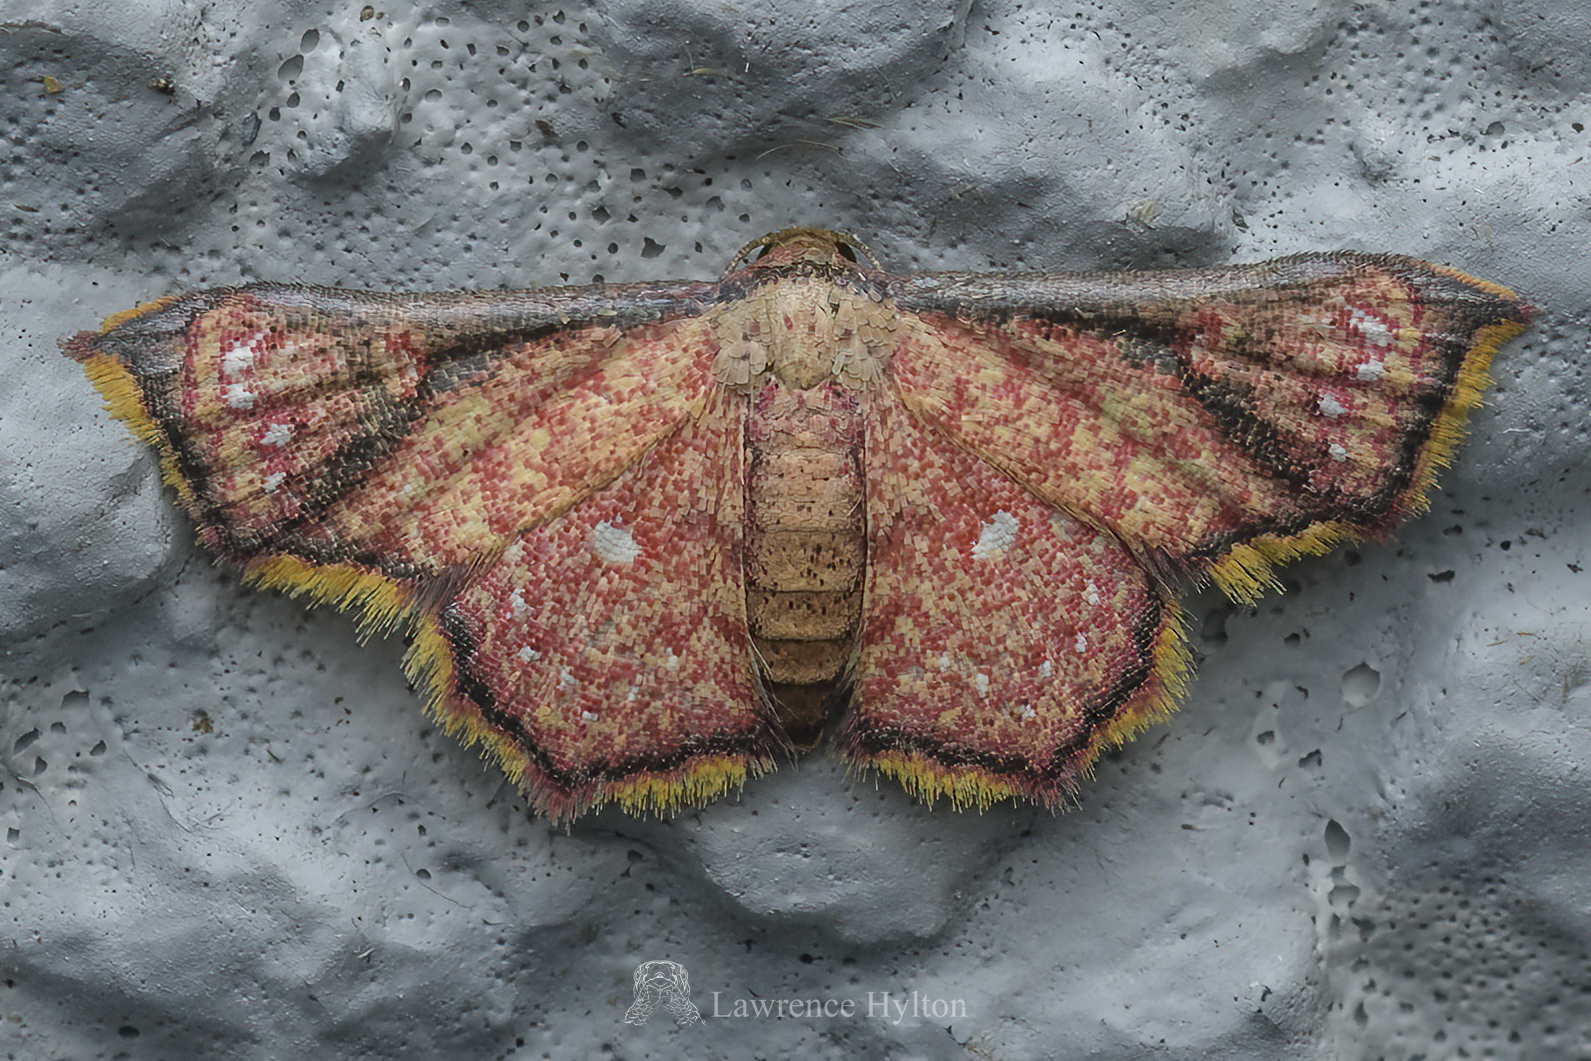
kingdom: Animalia
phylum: Arthropoda
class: Insecta
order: Lepidoptera
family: Noctuidae
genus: Enispa
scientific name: Enispa elataria
